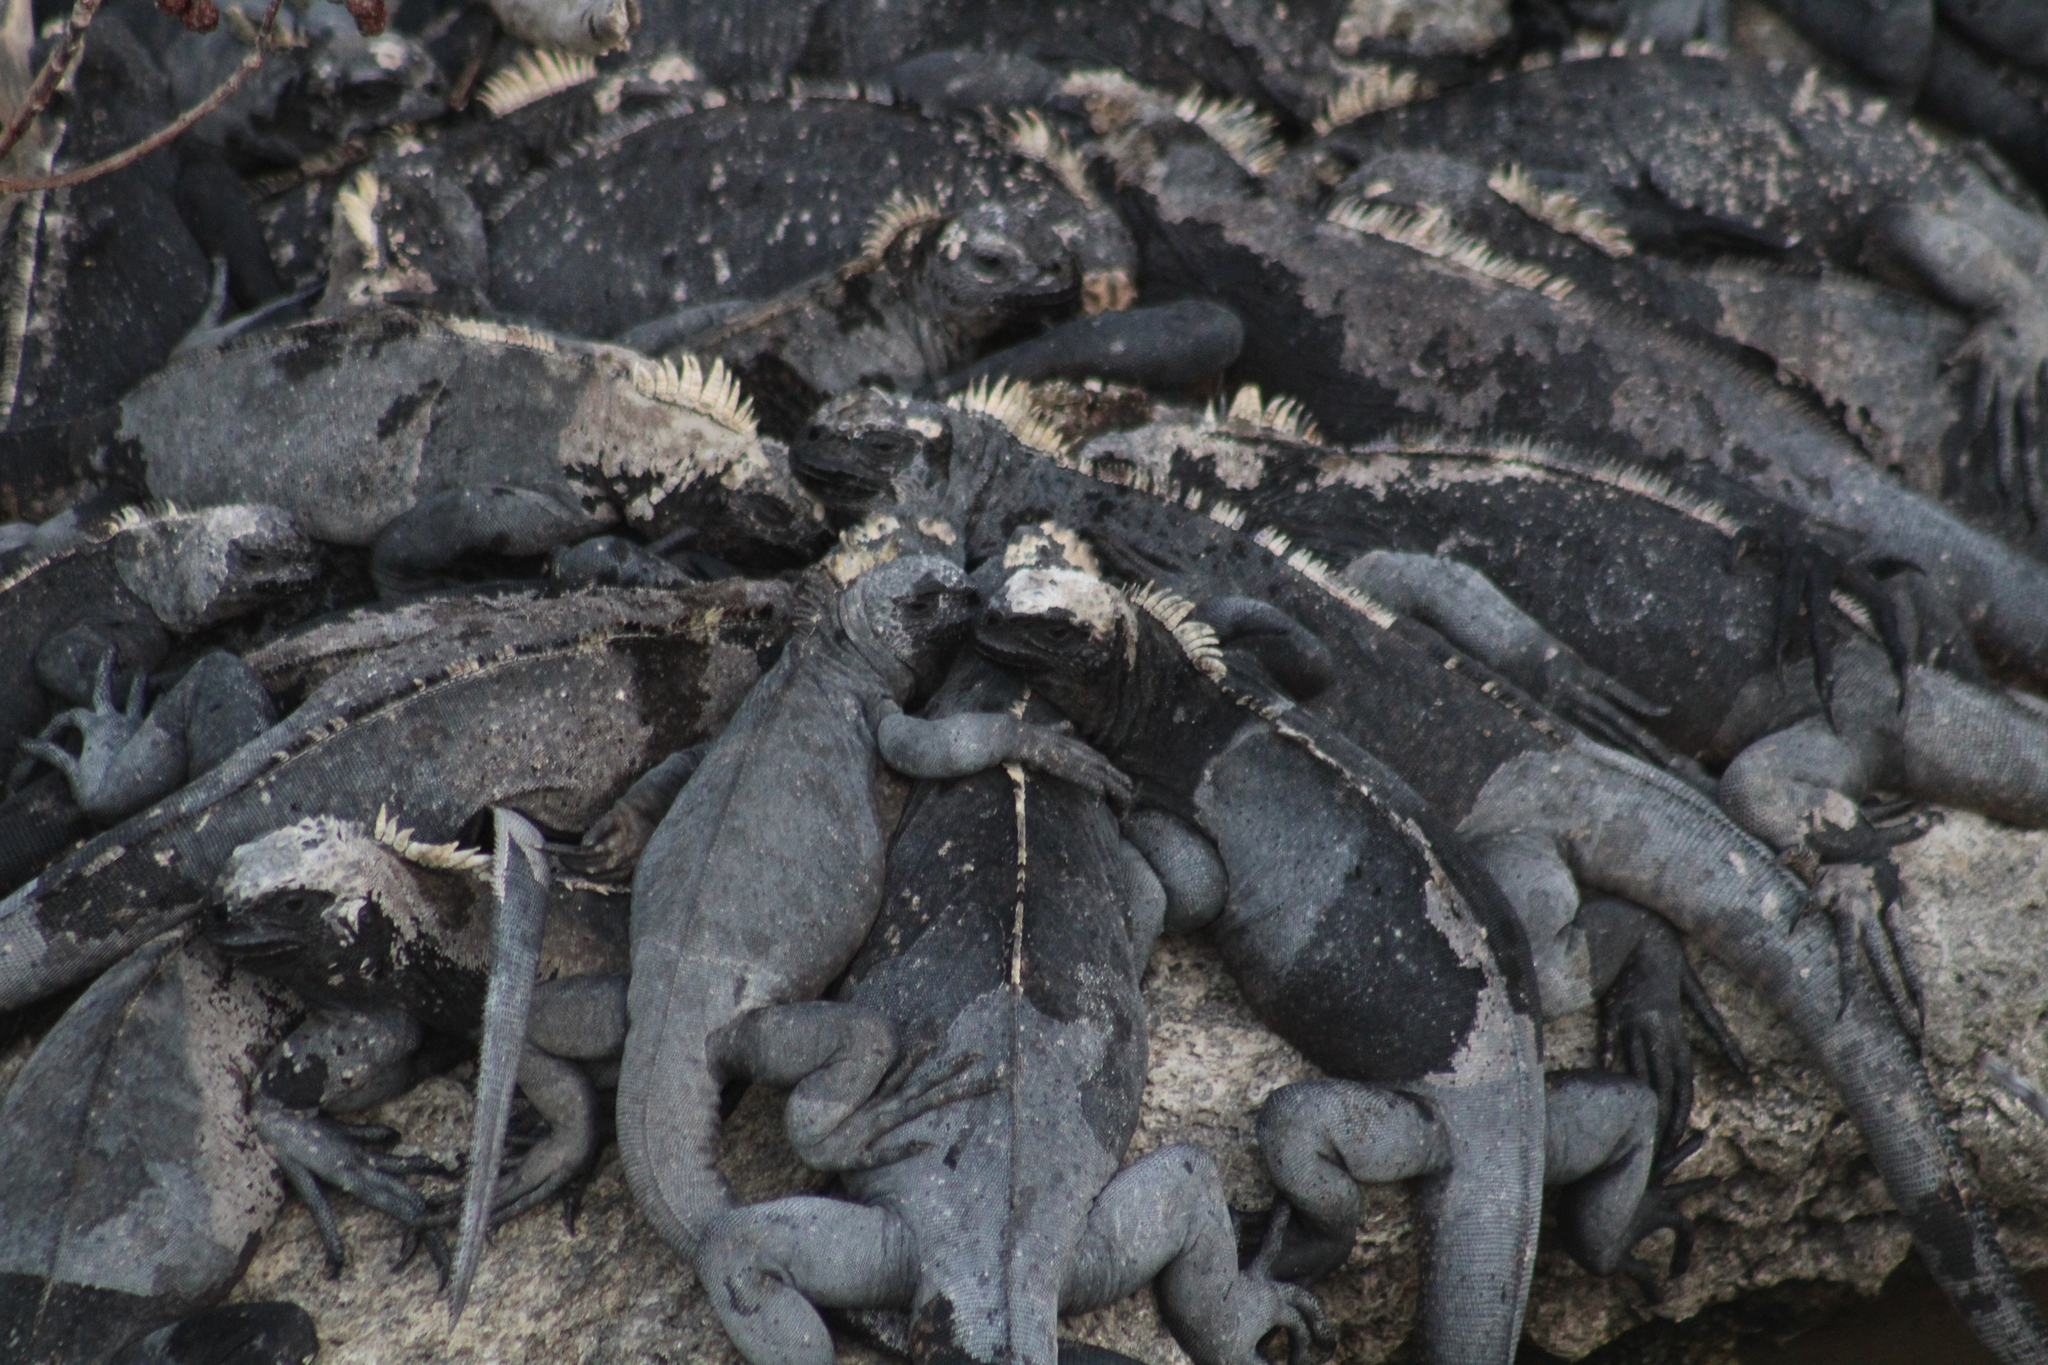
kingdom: Animalia
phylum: Chordata
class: Squamata
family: Iguanidae
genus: Amblyrhynchus
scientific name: Amblyrhynchus cristatus
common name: Marine iguana
